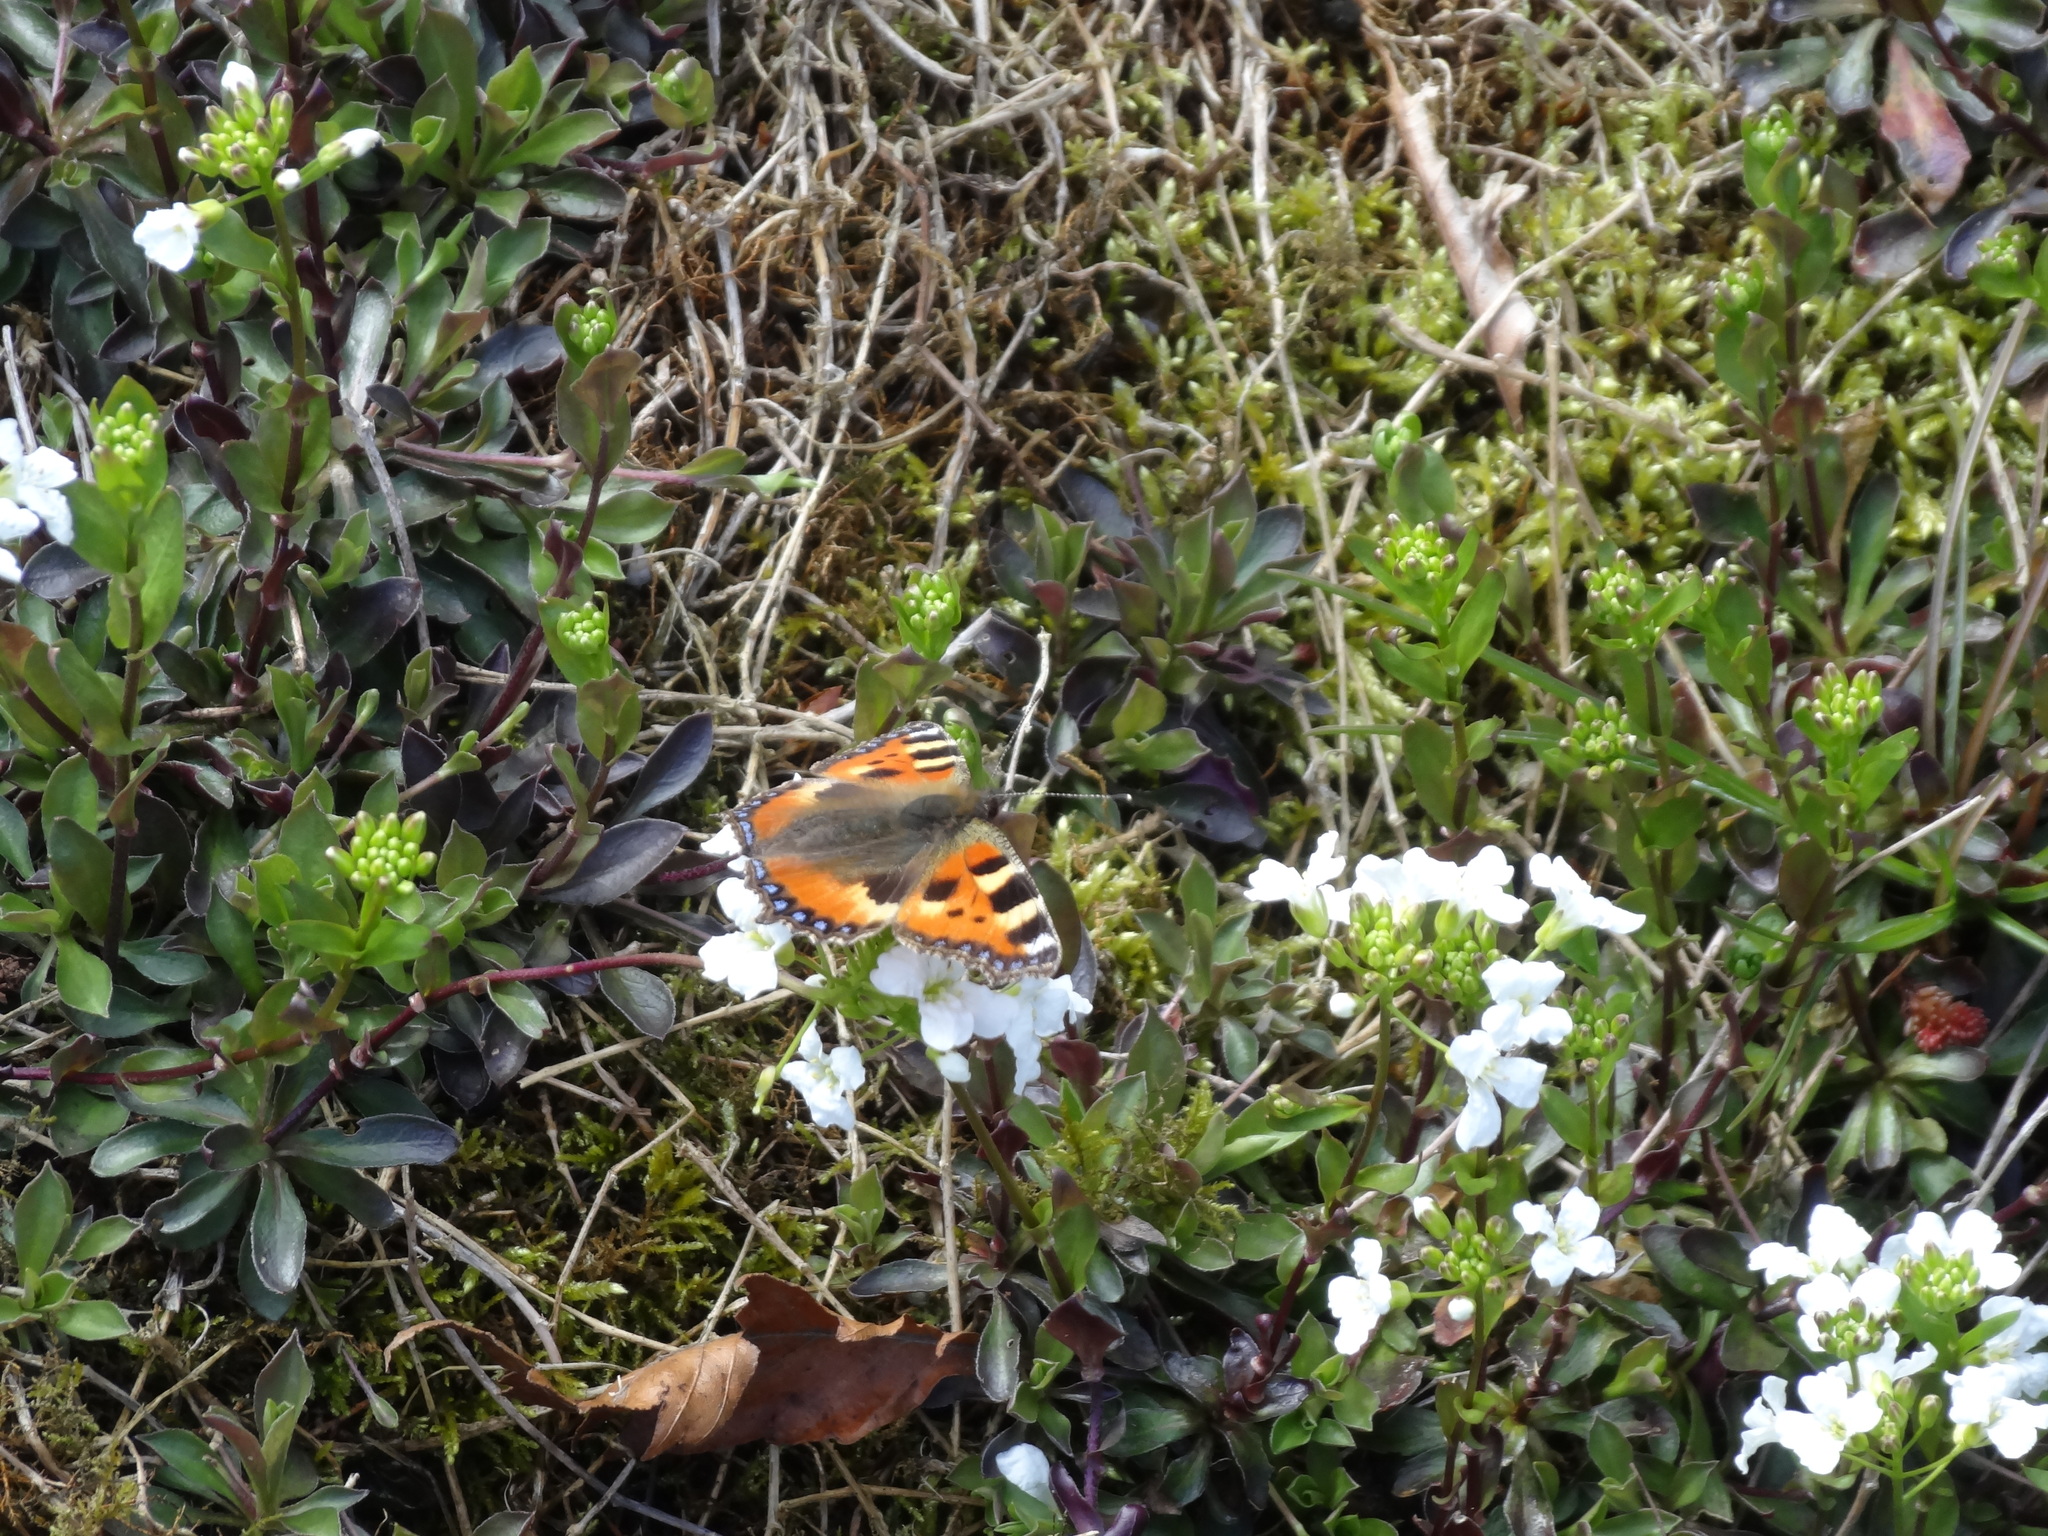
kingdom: Animalia
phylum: Arthropoda
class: Insecta
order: Lepidoptera
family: Nymphalidae
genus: Aglais
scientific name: Aglais urticae
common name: Small tortoiseshell
